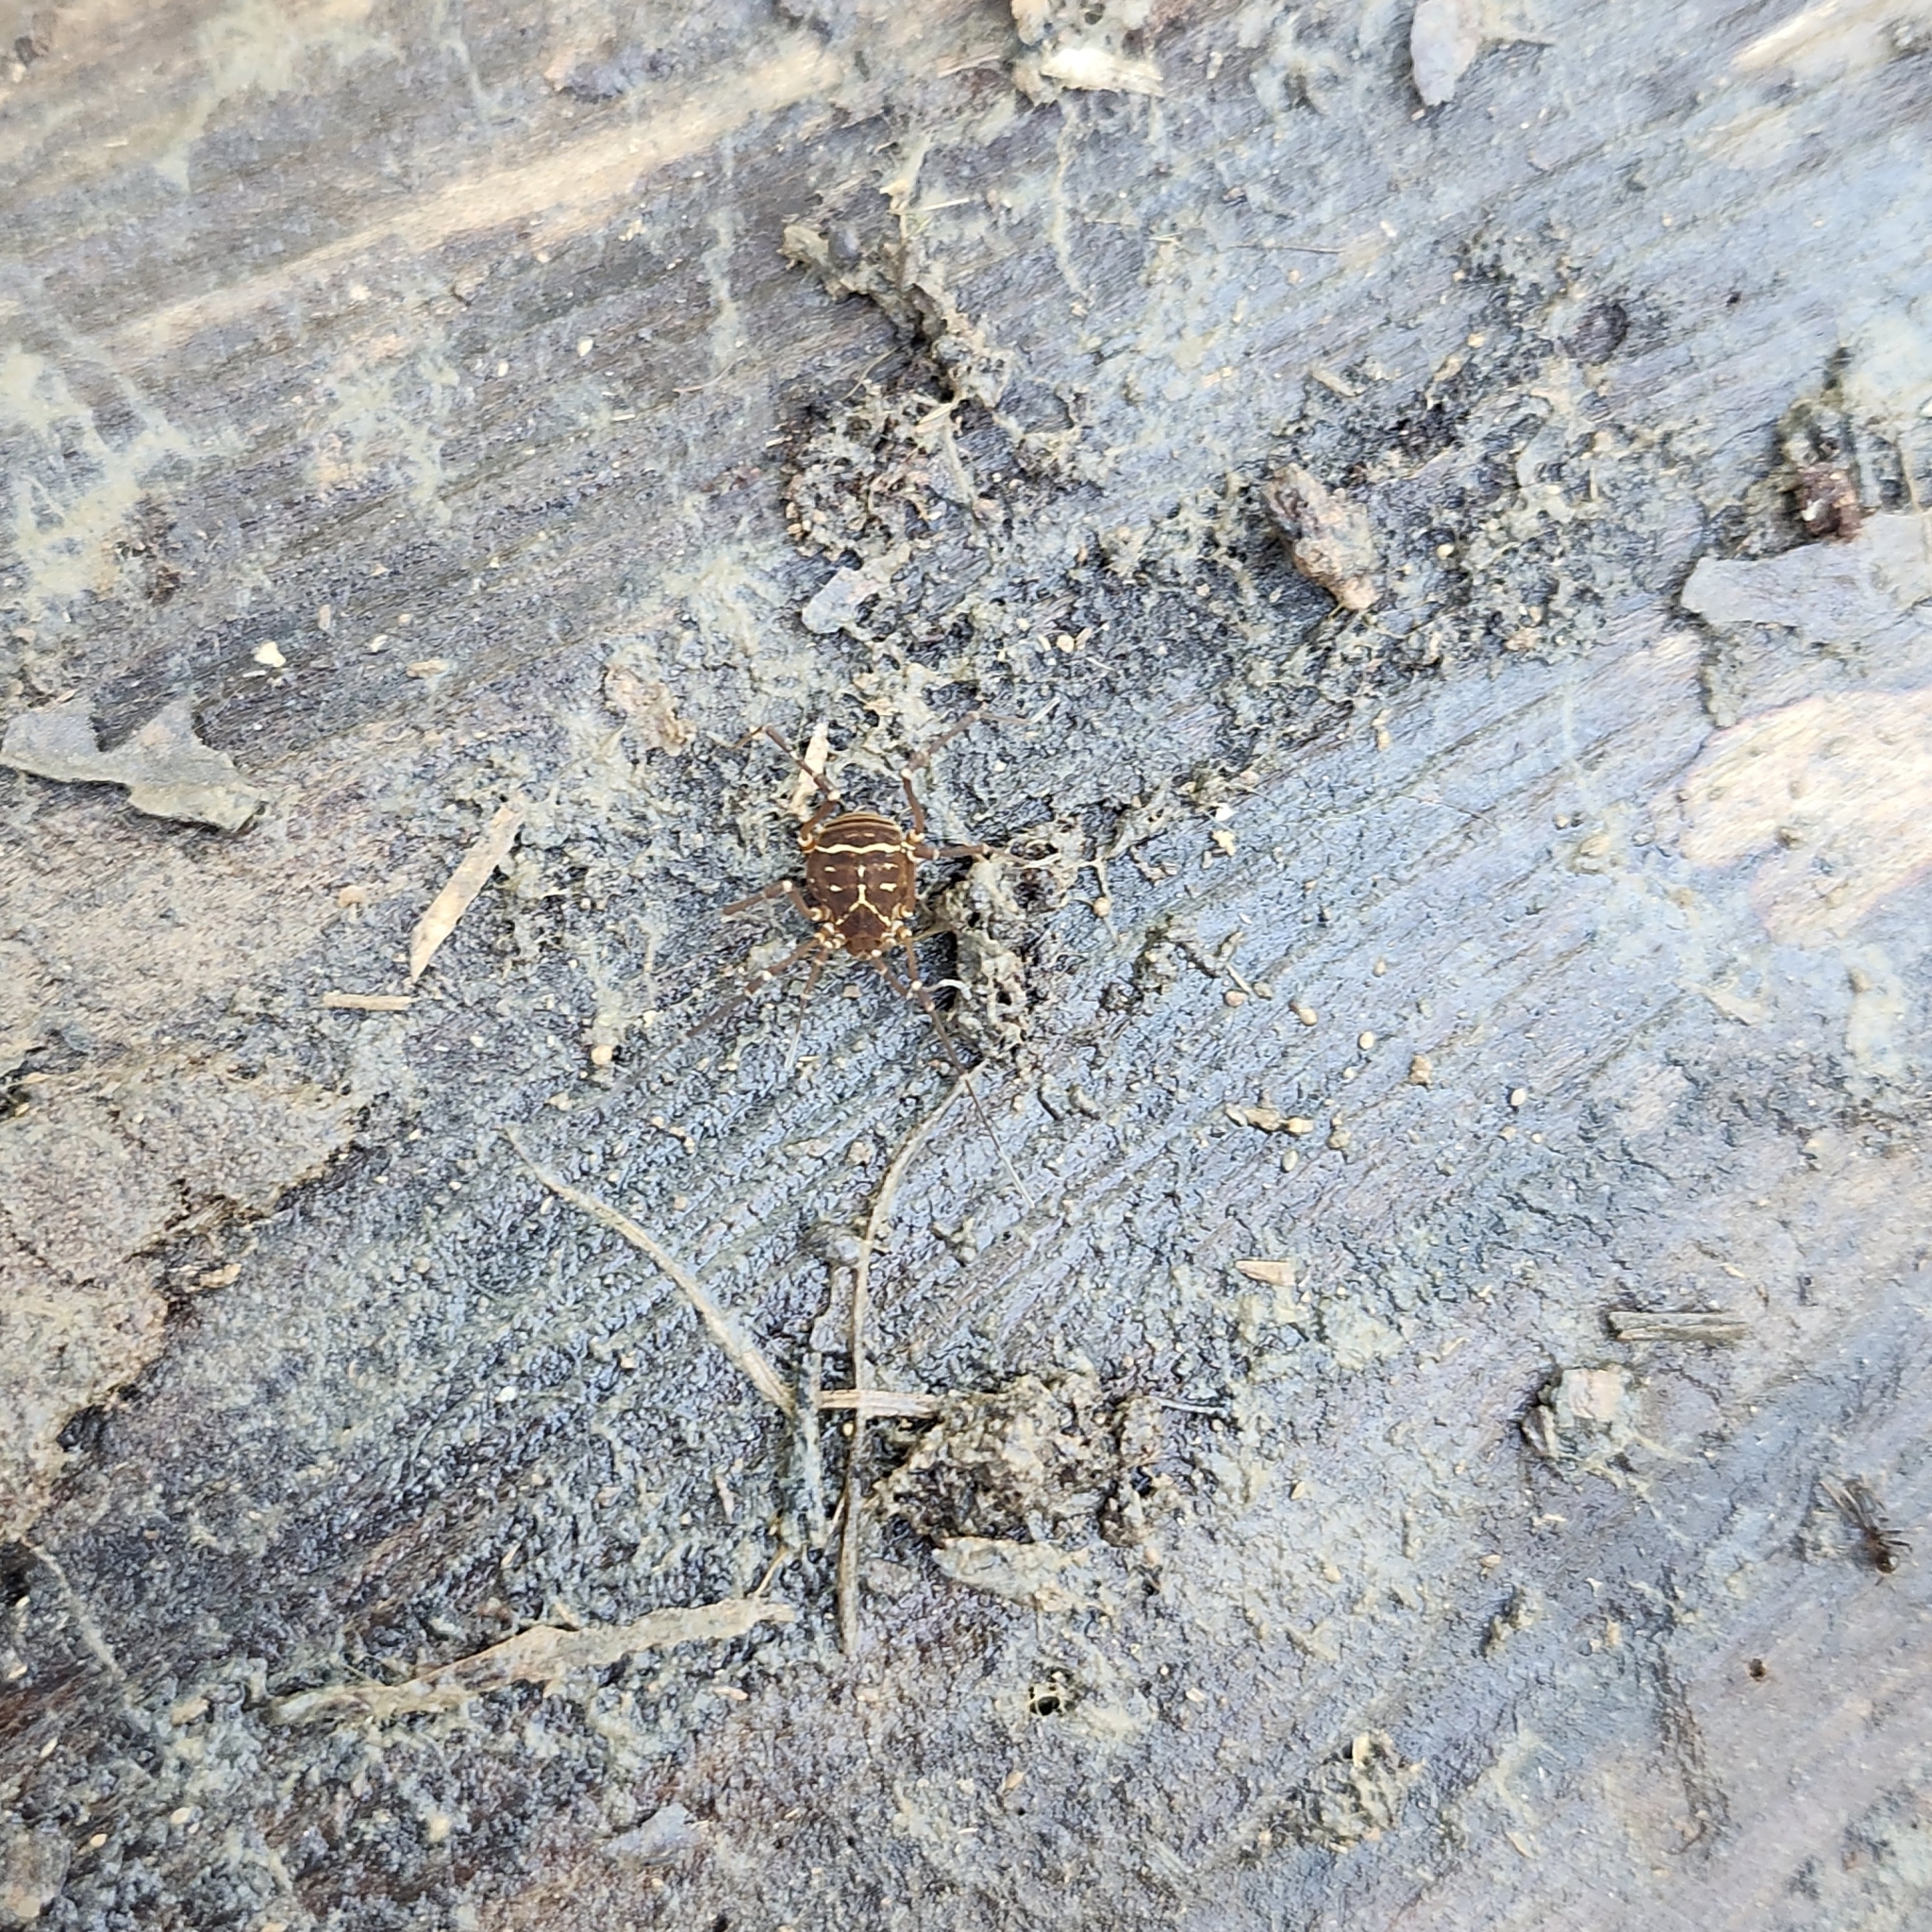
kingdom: Animalia
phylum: Arthropoda
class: Arachnida
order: Opiliones
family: Cosmetidae
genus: Libitioides
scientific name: Libitioides sayi
